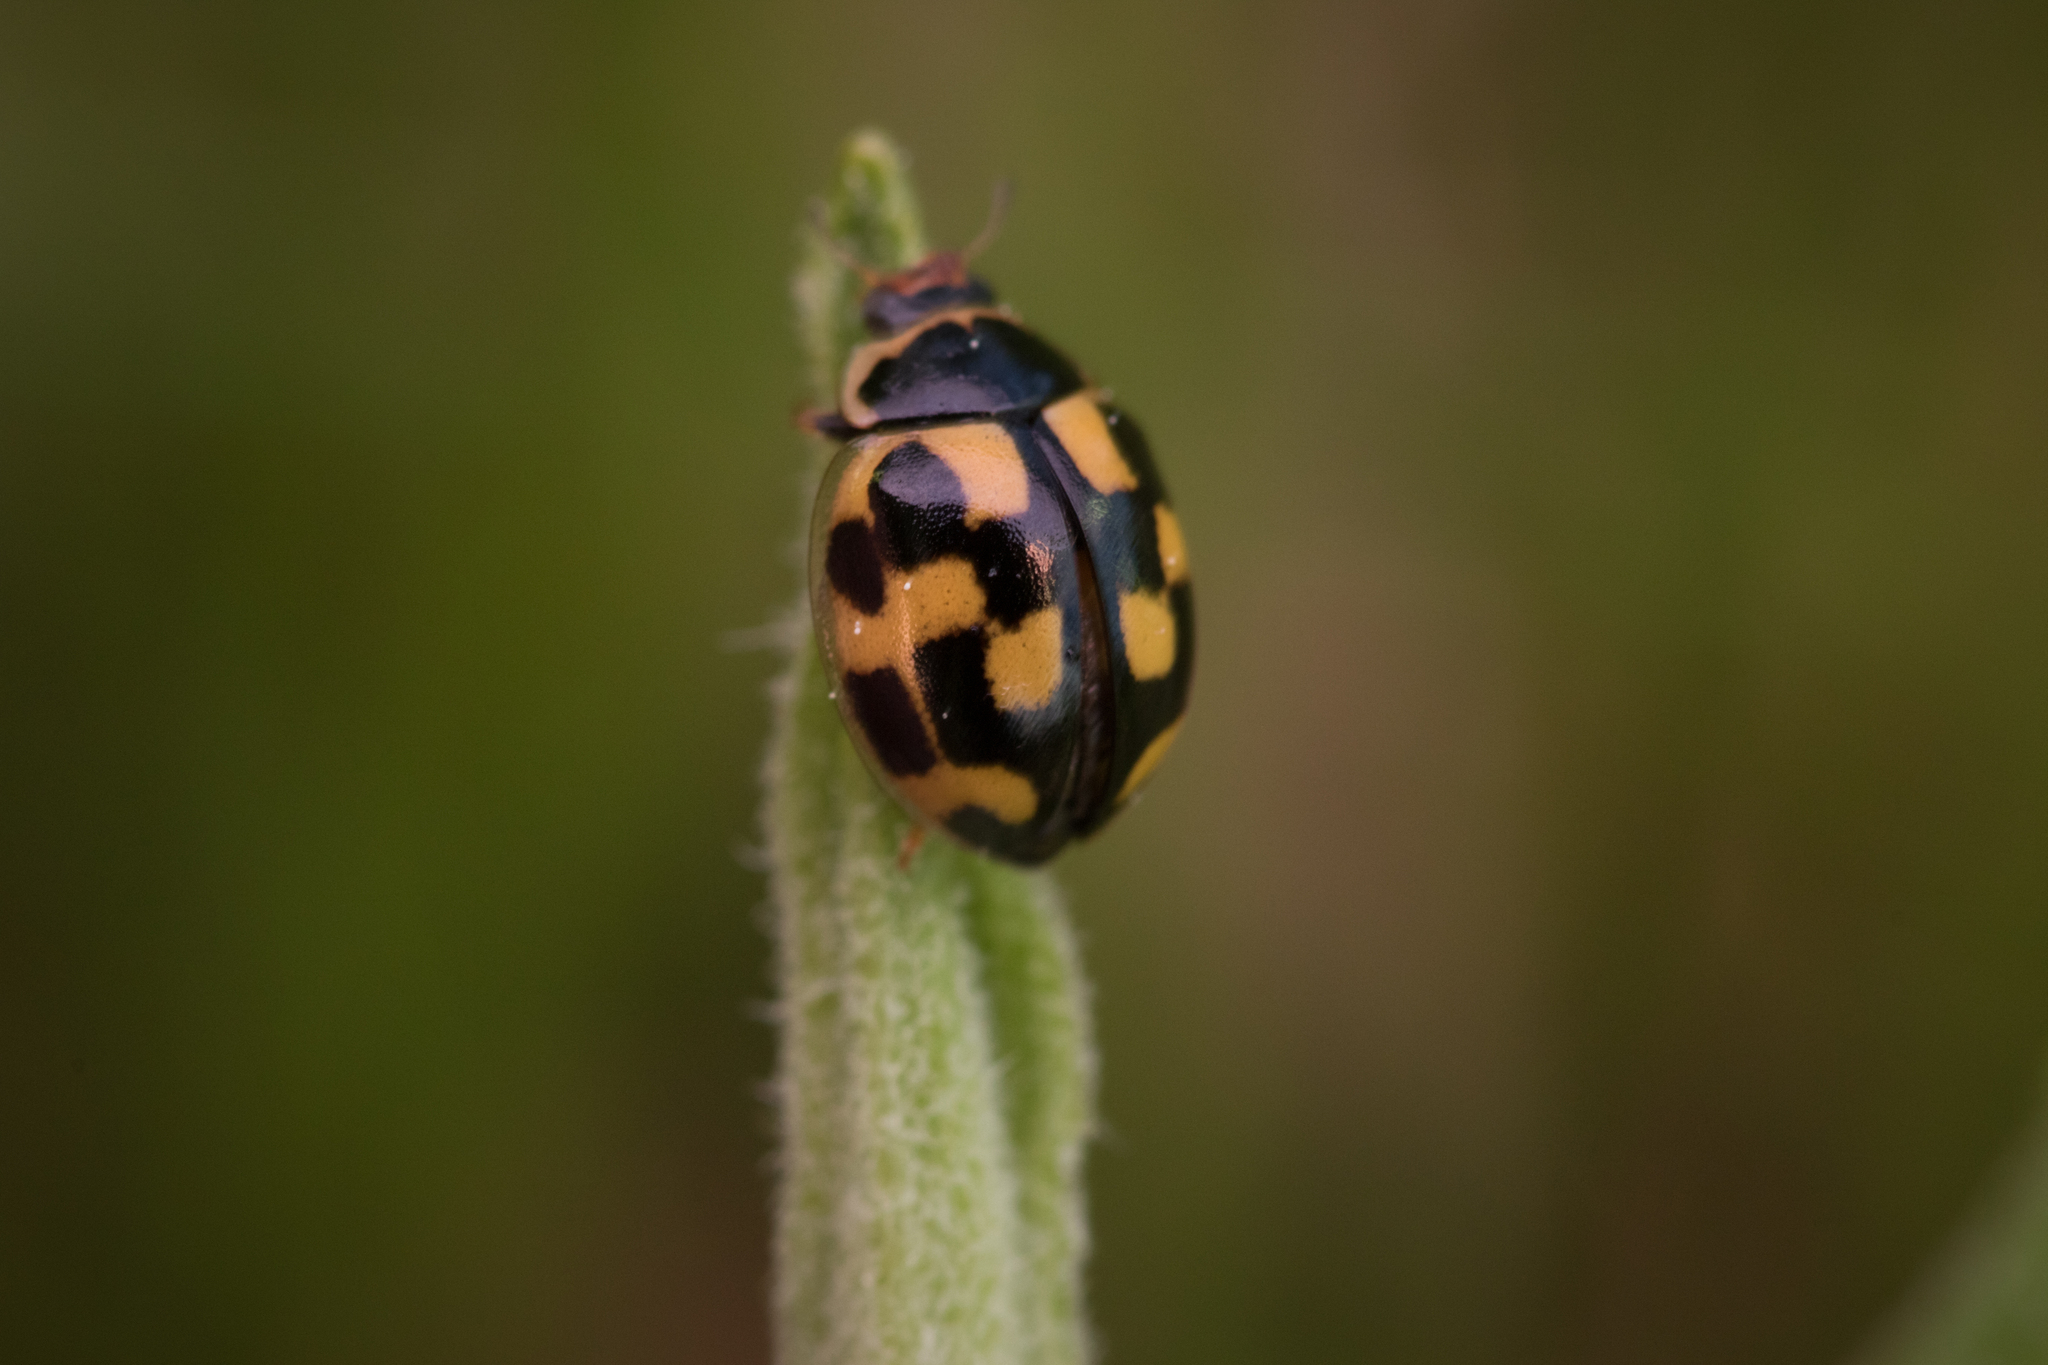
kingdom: Animalia
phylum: Arthropoda
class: Insecta
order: Coleoptera
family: Coccinellidae
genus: Propylaea
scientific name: Propylaea quatuordecimpunctata
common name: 14-spotted ladybird beetle
